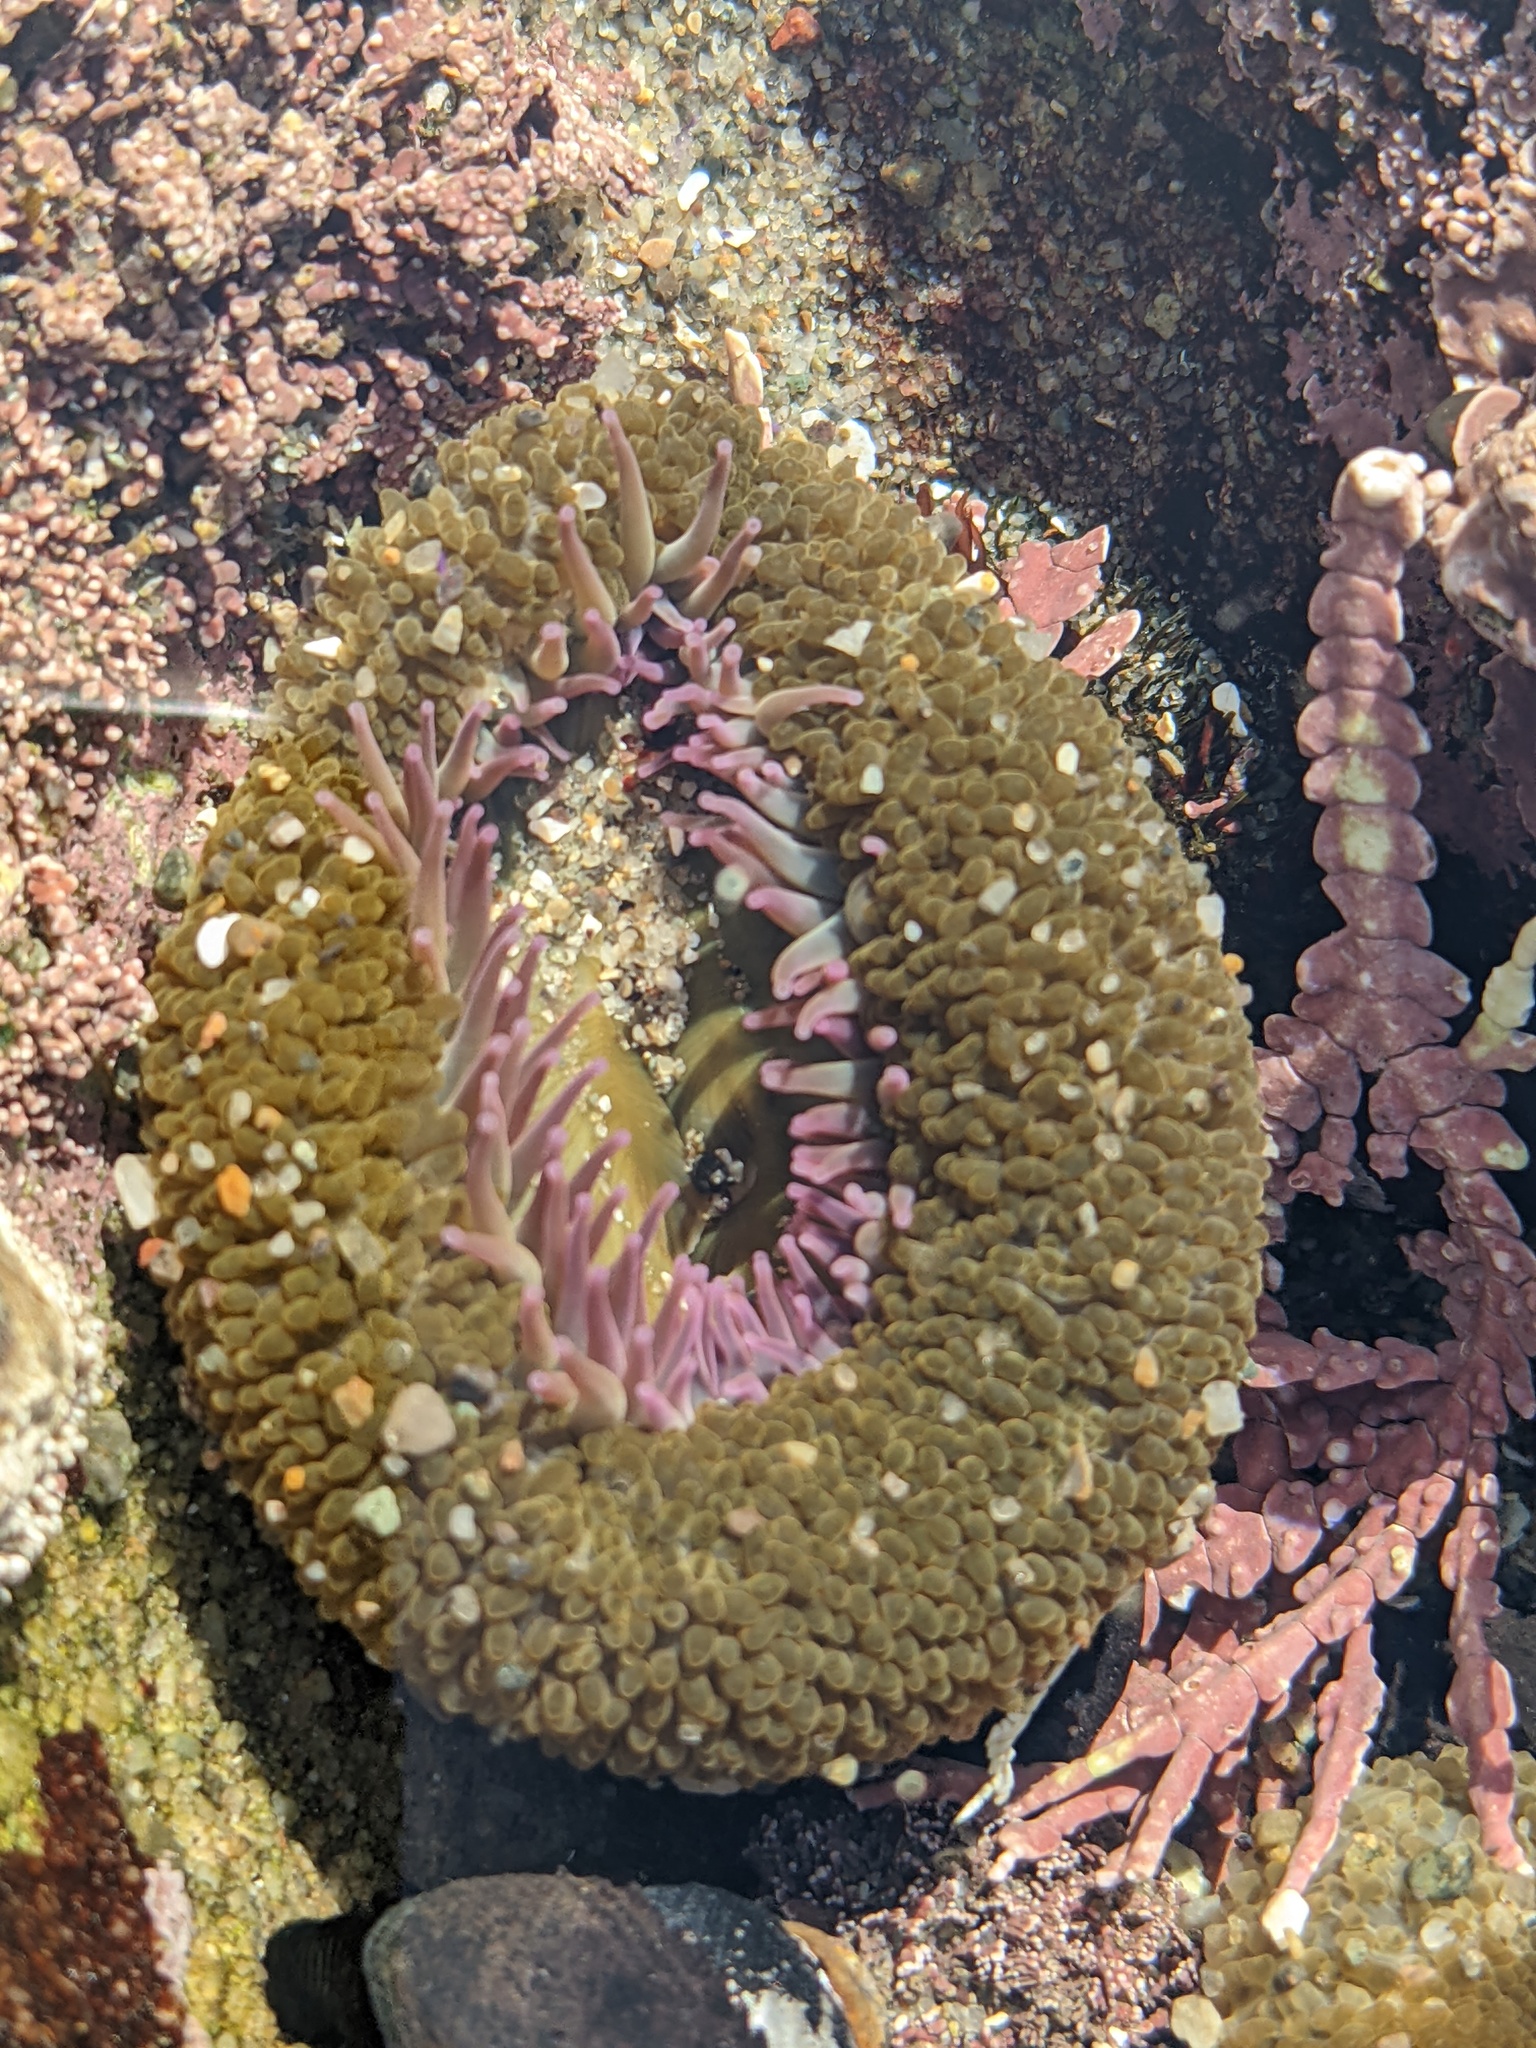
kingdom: Animalia
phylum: Cnidaria
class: Anthozoa
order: Actiniaria
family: Actiniidae
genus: Anthopleura
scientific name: Anthopleura elegantissima
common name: Clonal anemone
